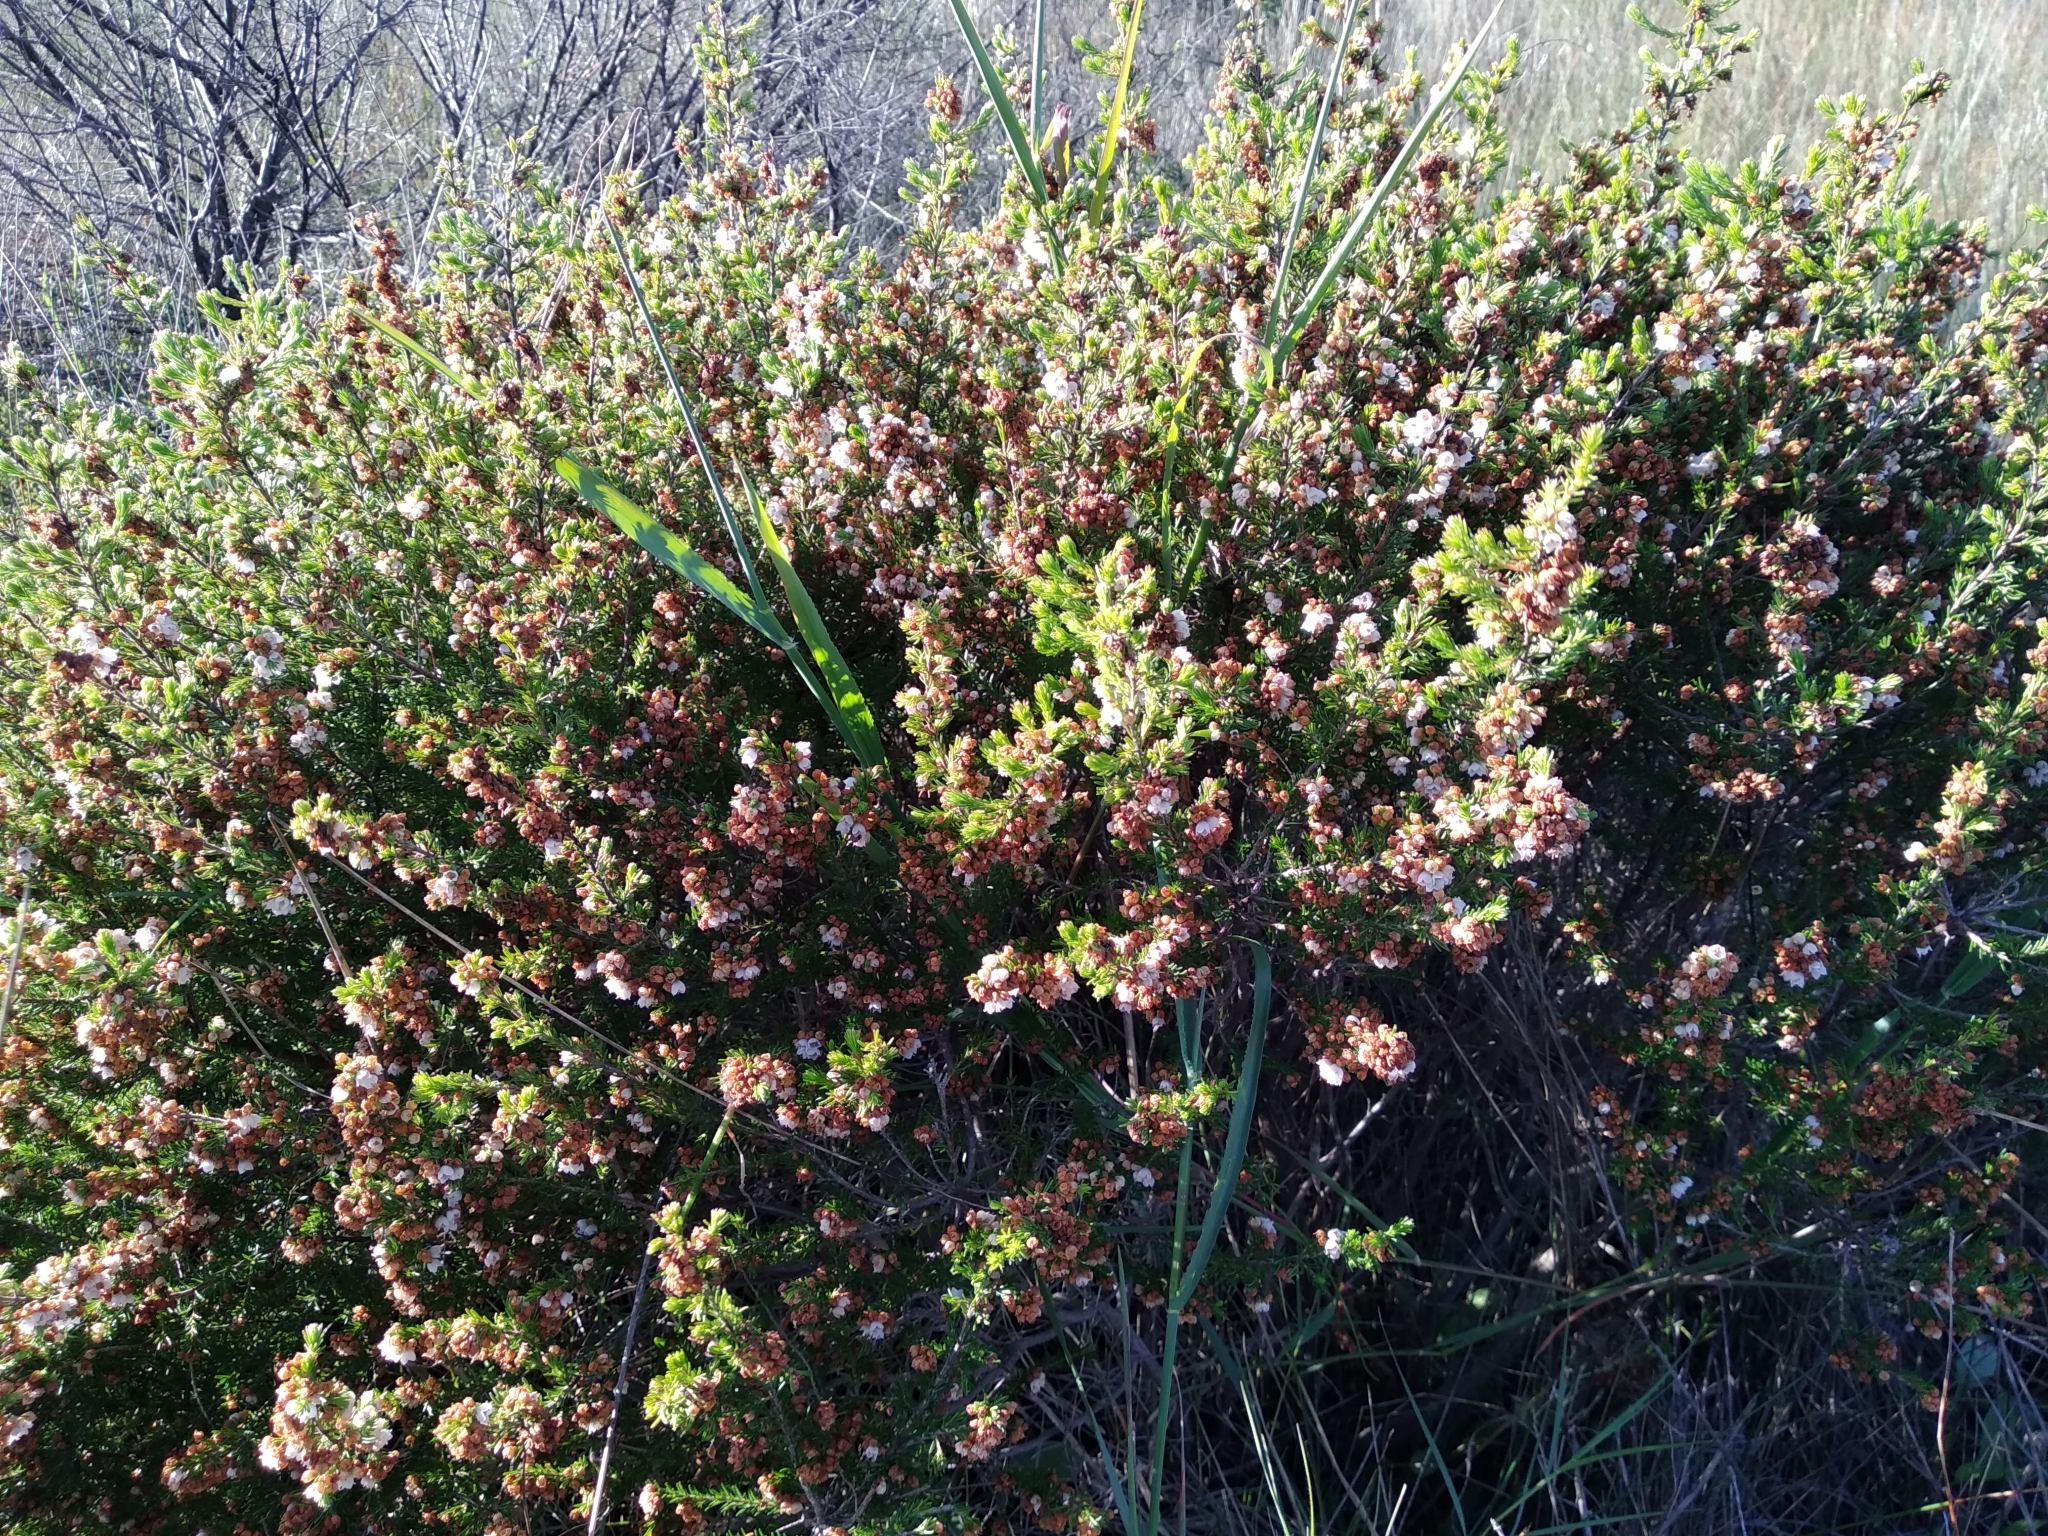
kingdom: Plantae
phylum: Tracheophyta
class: Magnoliopsida
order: Ericales
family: Ericaceae
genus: Erica
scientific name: Erica subdivaricata
